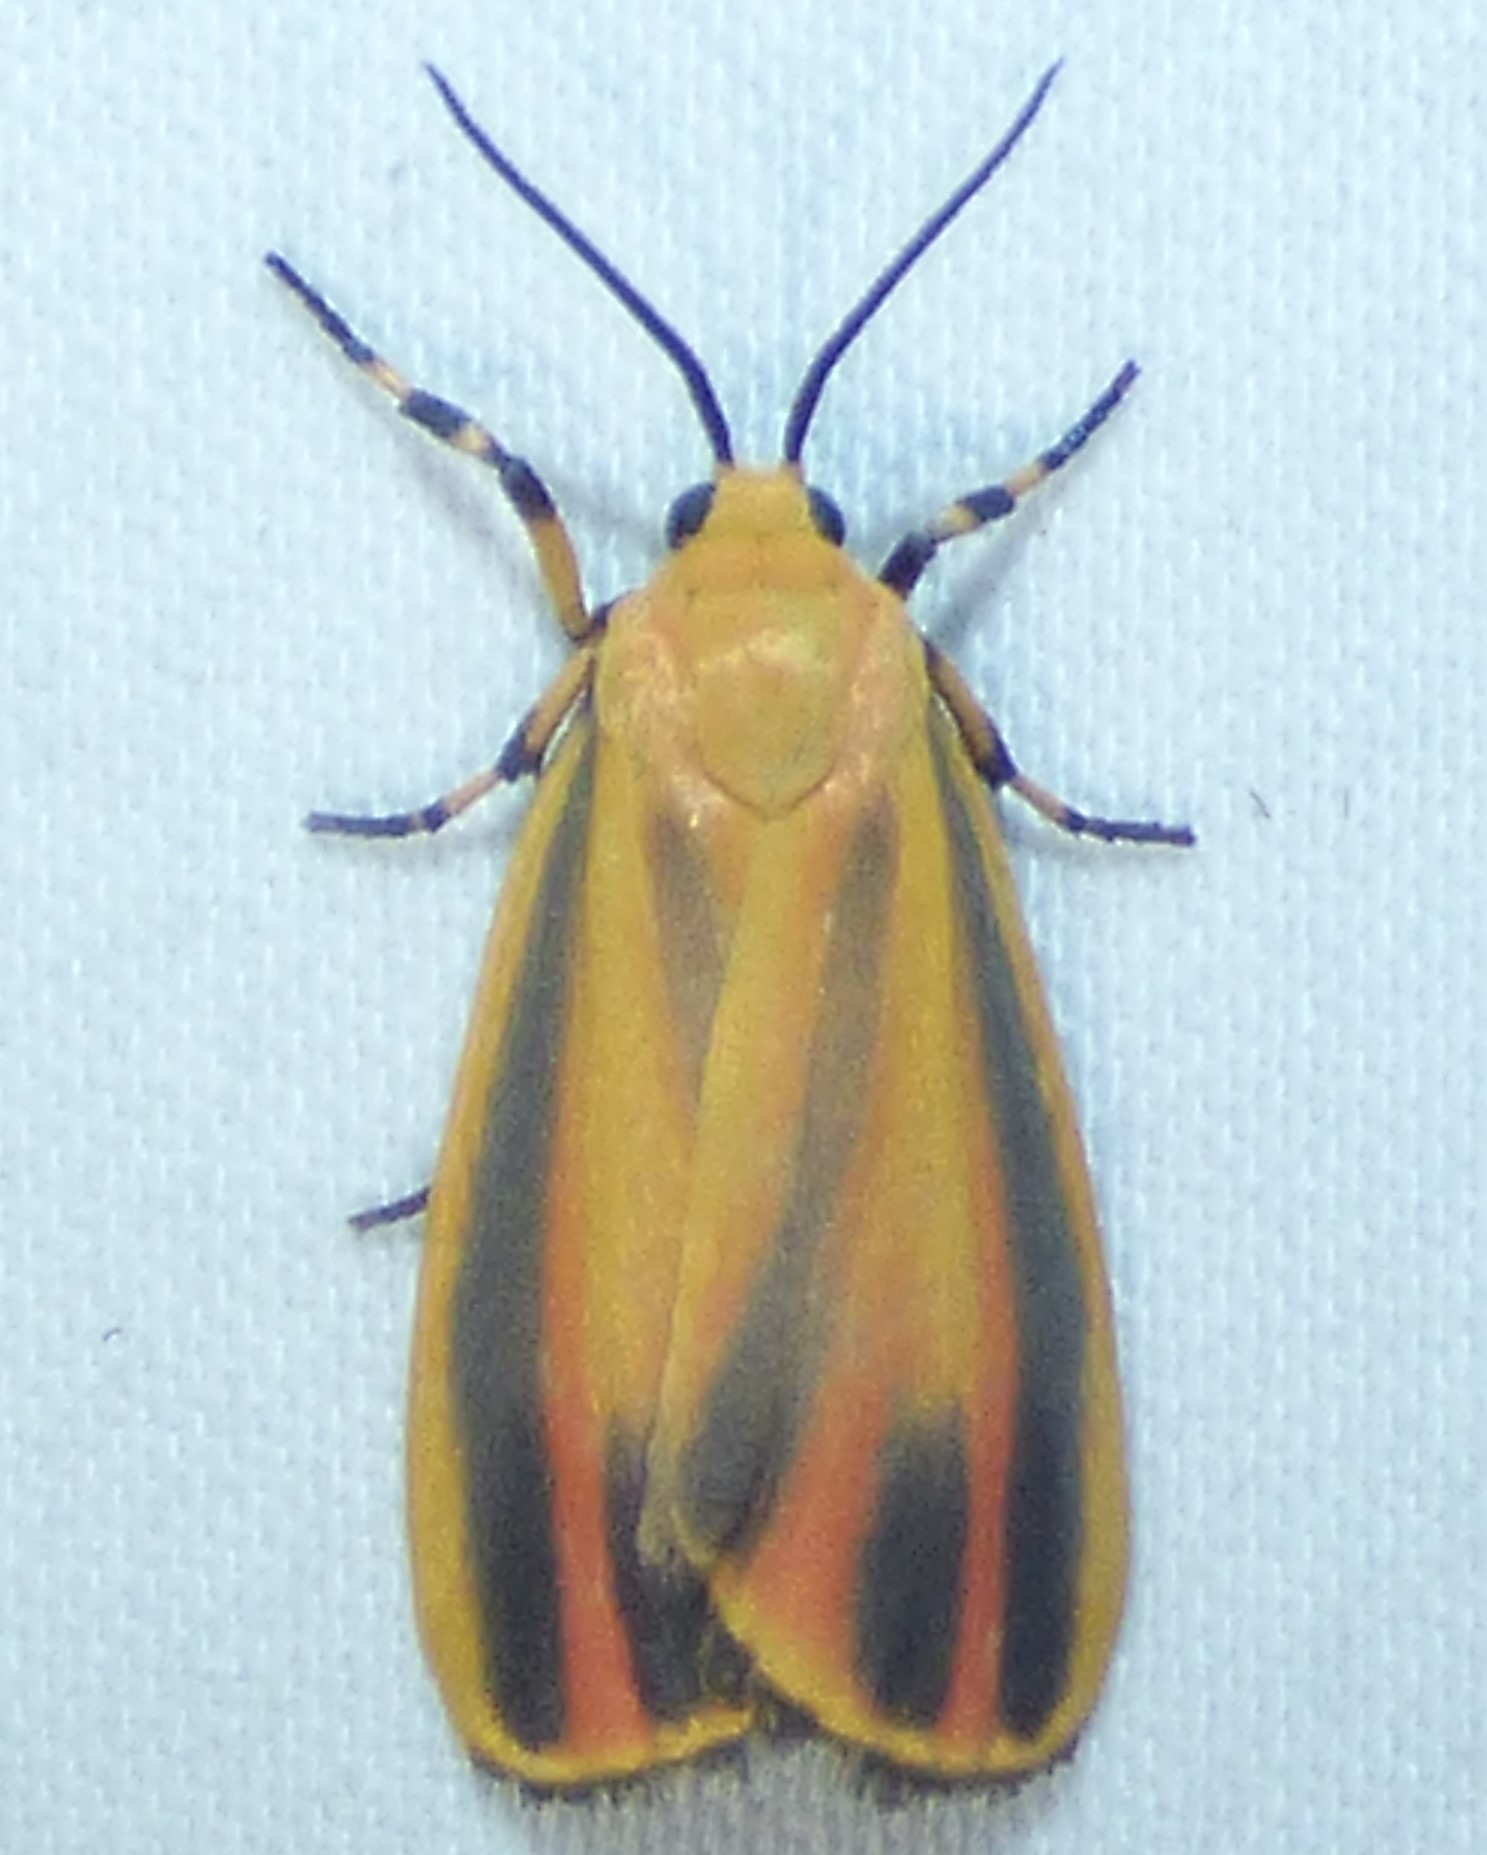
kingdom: Animalia
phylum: Arthropoda
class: Insecta
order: Lepidoptera
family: Erebidae
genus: Hypoprepia
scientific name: Hypoprepia fucosa
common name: Painted lichen moth
